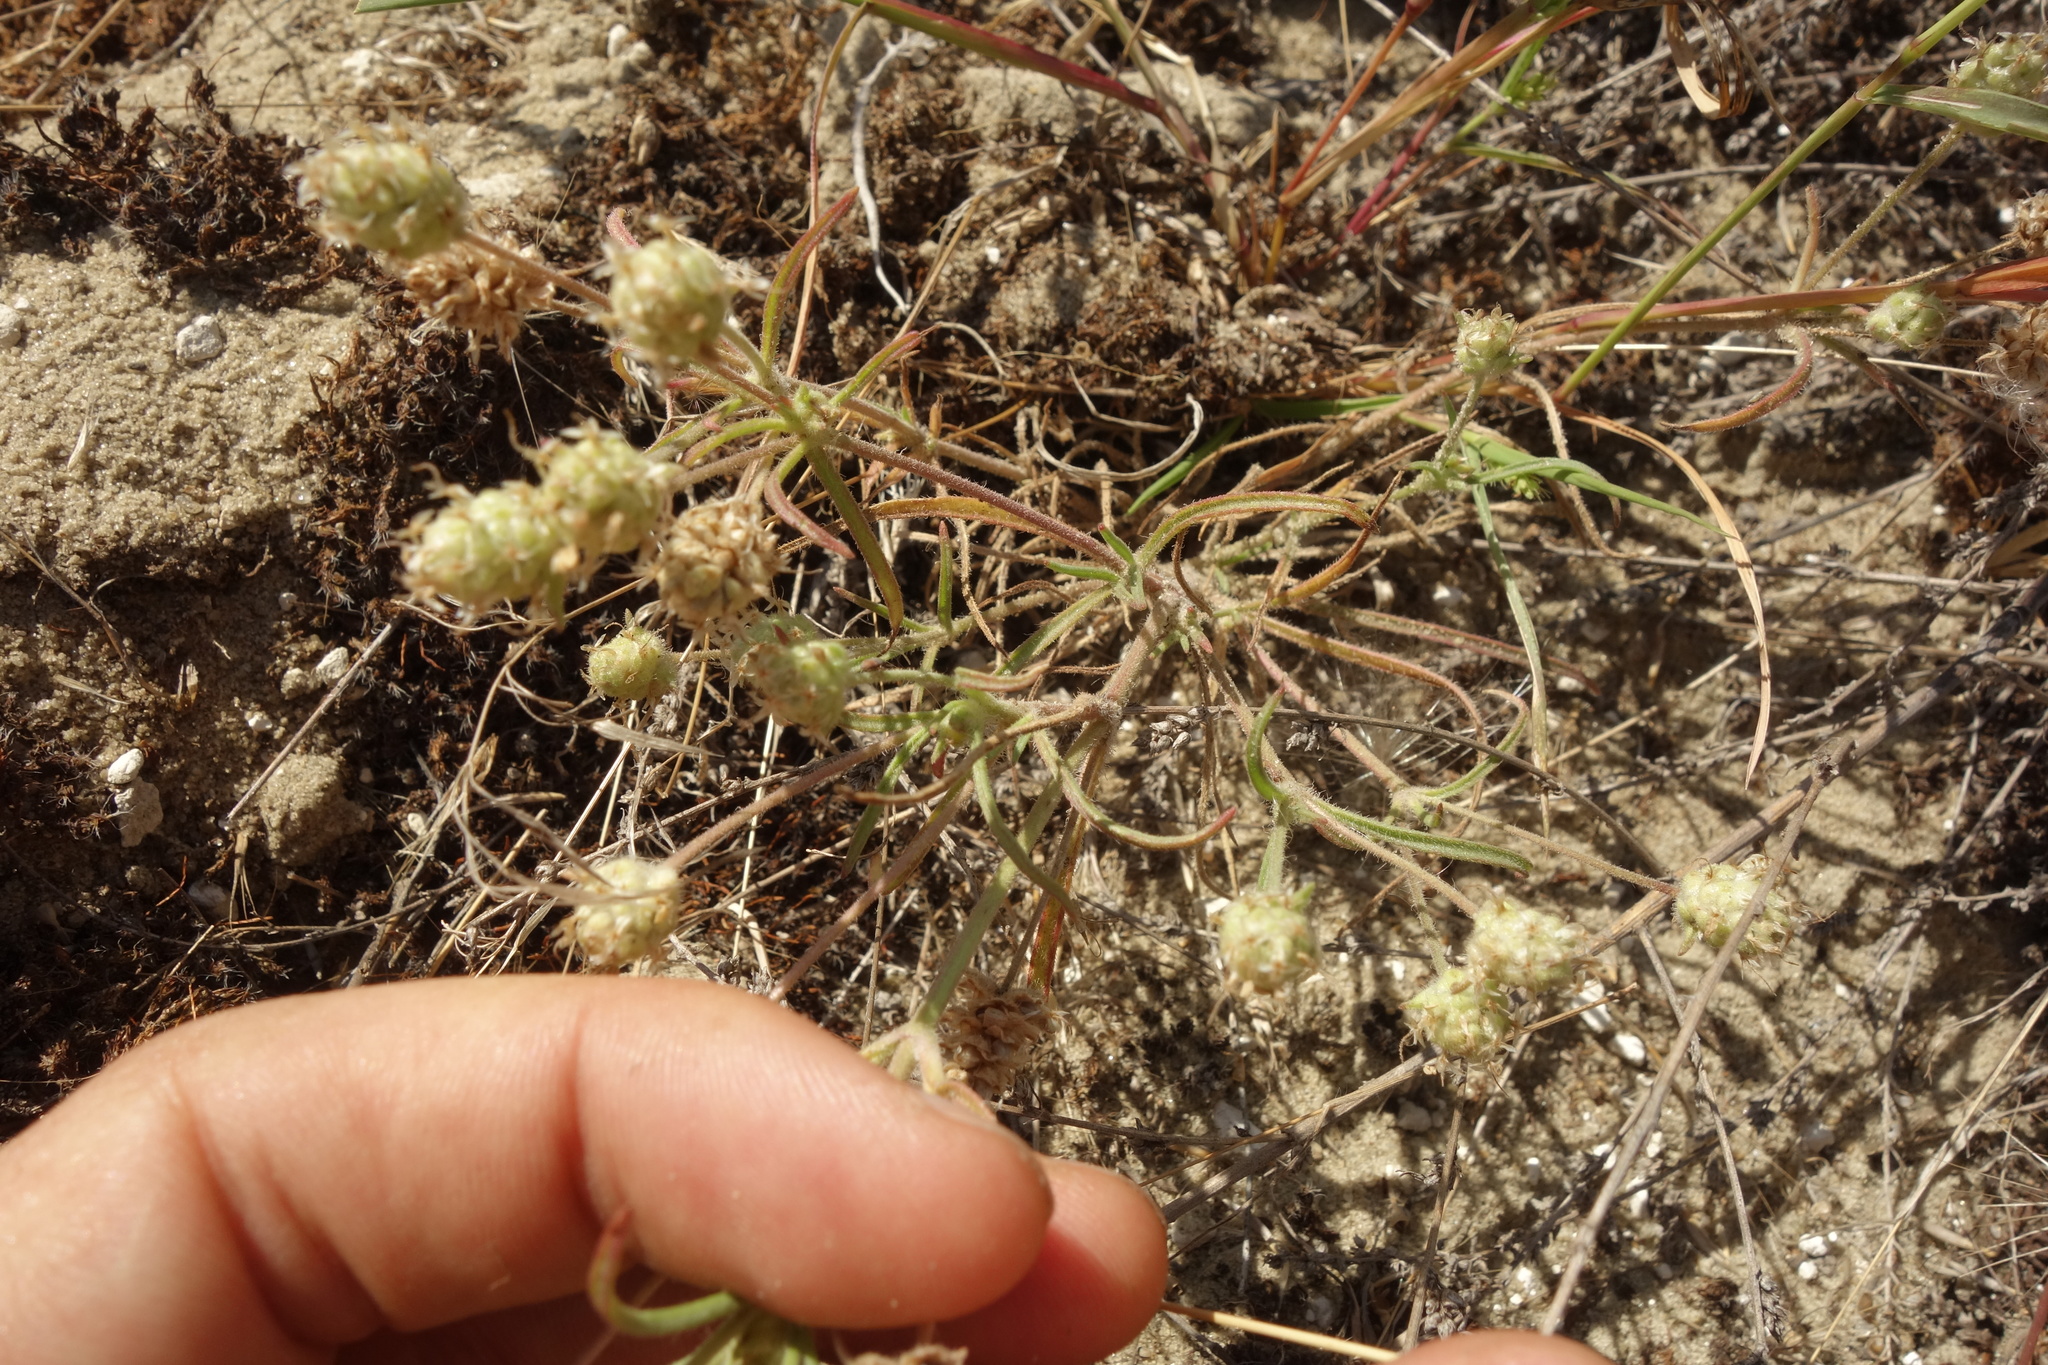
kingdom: Plantae
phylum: Tracheophyta
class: Magnoliopsida
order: Lamiales
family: Plantaginaceae
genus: Plantago
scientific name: Plantago arenaria
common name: Branched plantain
